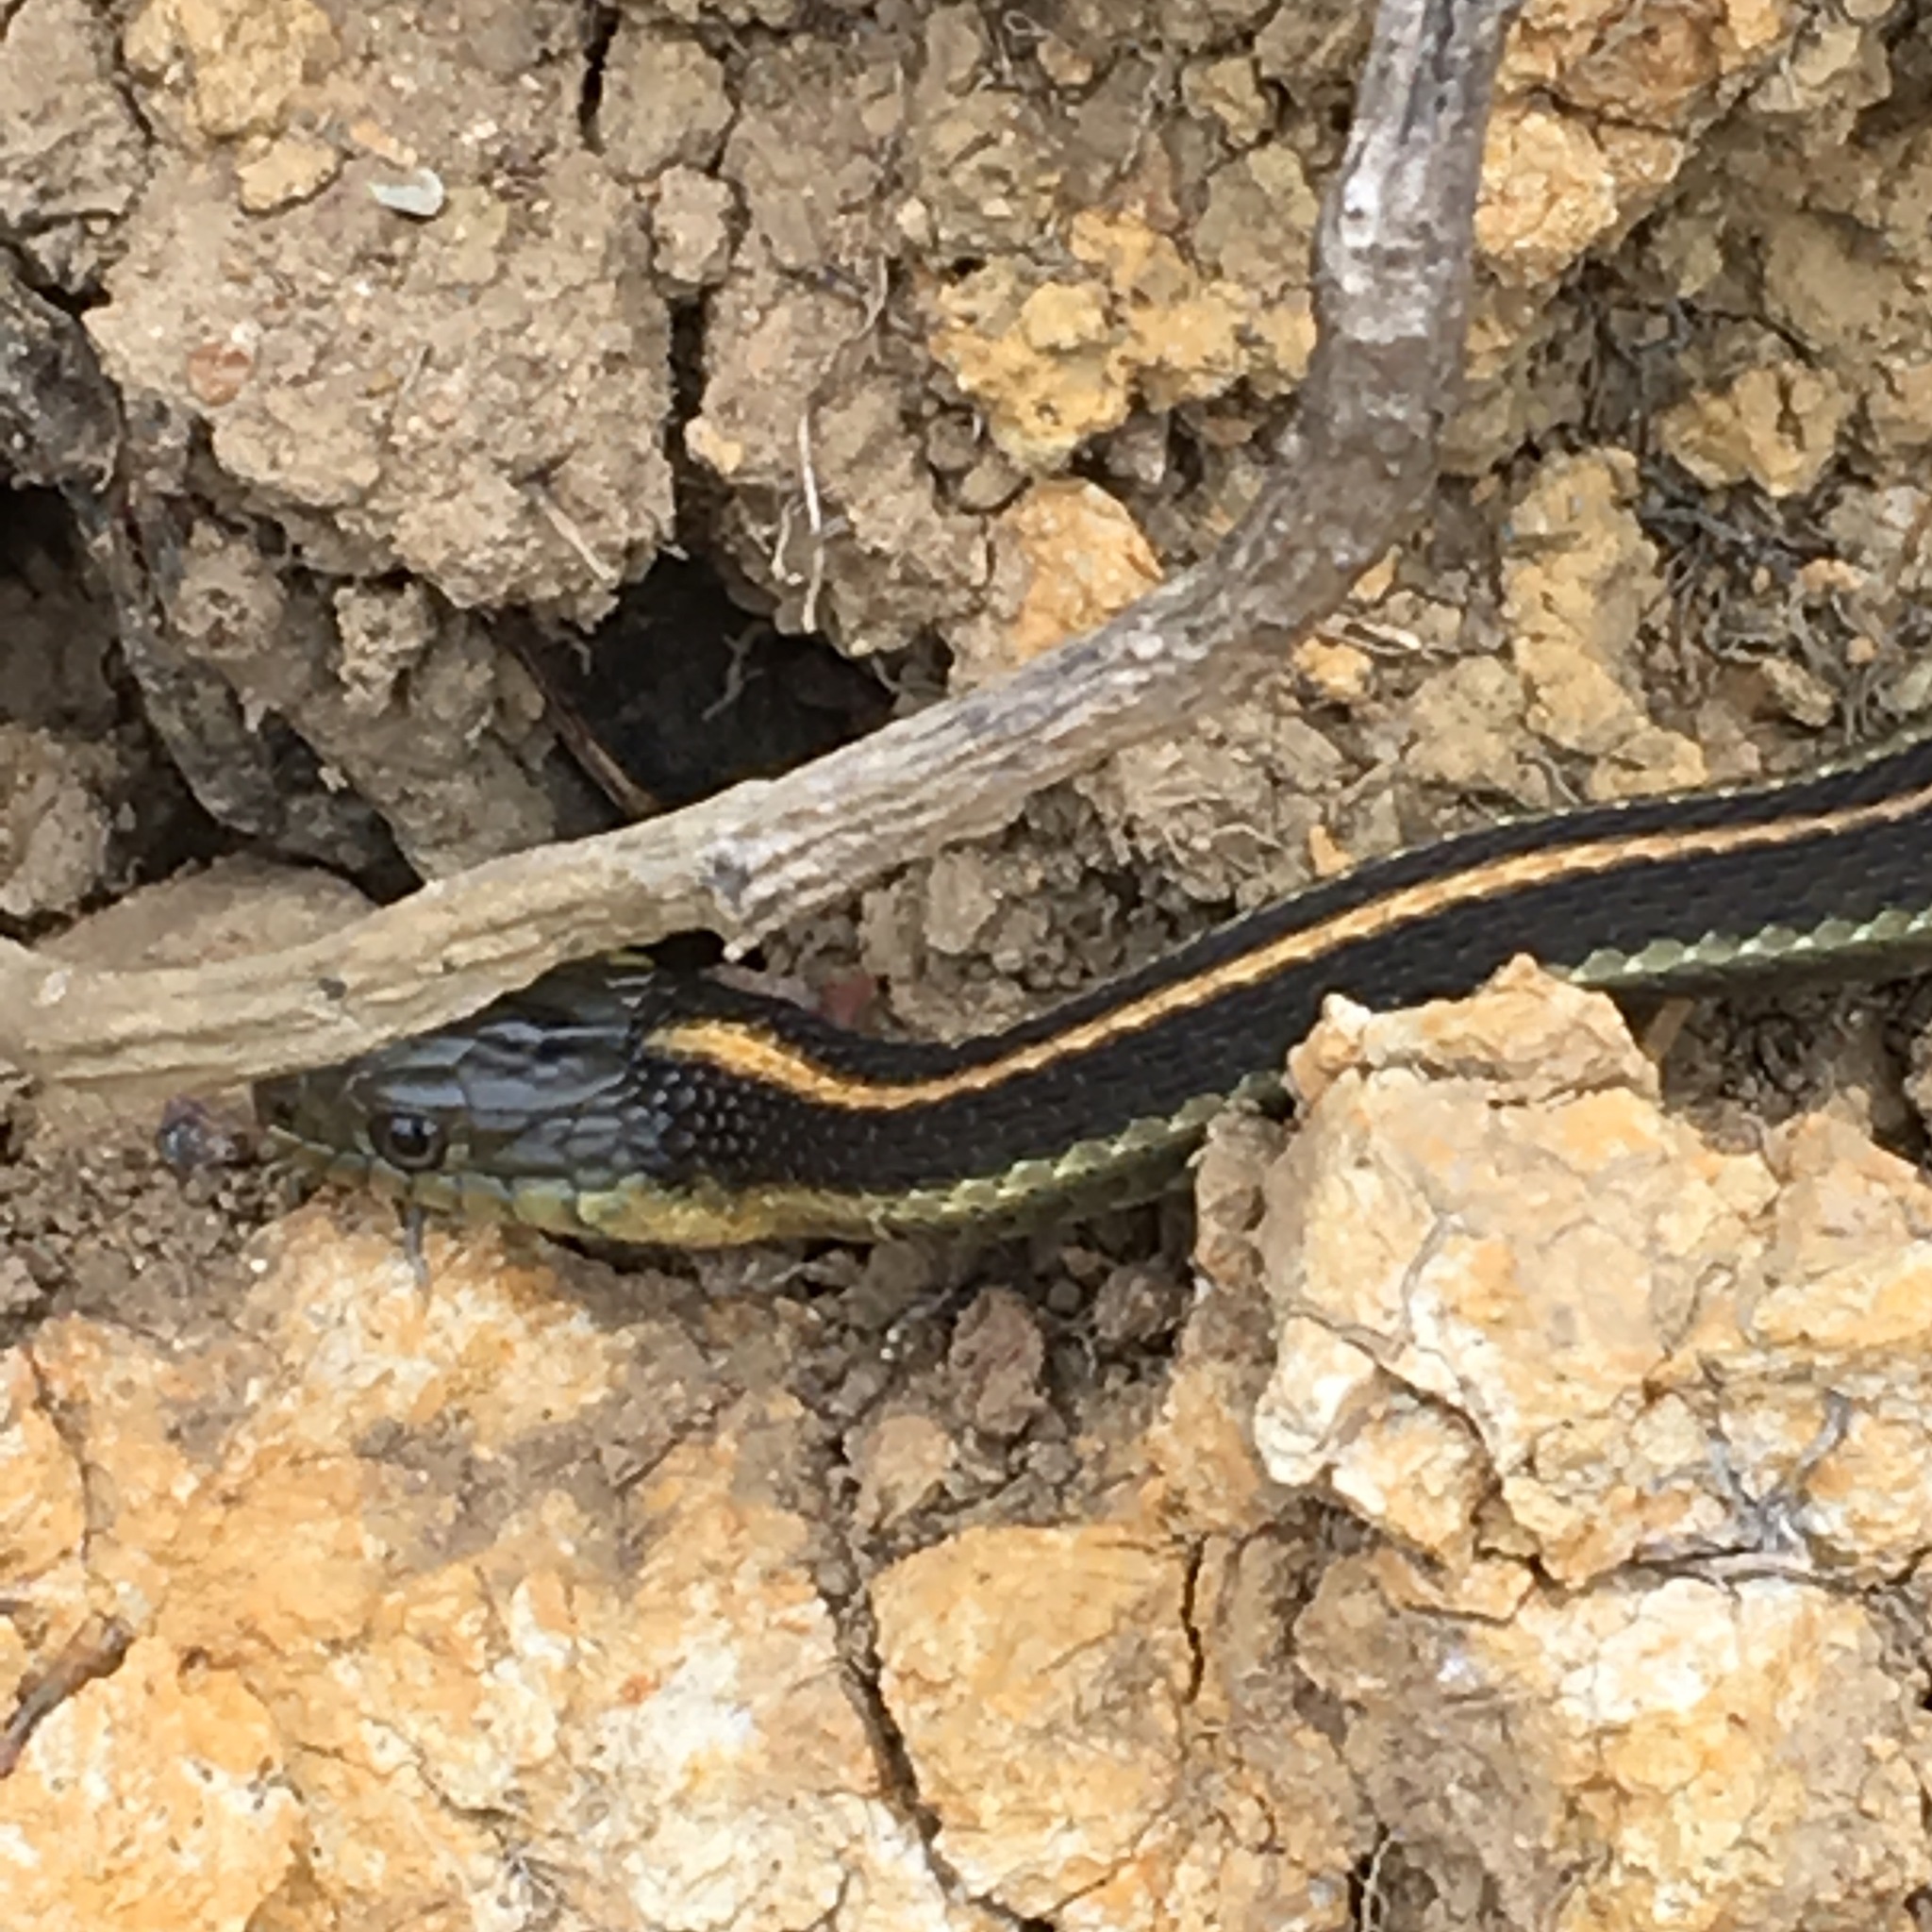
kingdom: Animalia
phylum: Chordata
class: Squamata
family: Colubridae
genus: Thamnophis
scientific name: Thamnophis atratus
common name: Pacific coast aquatic garter snake
